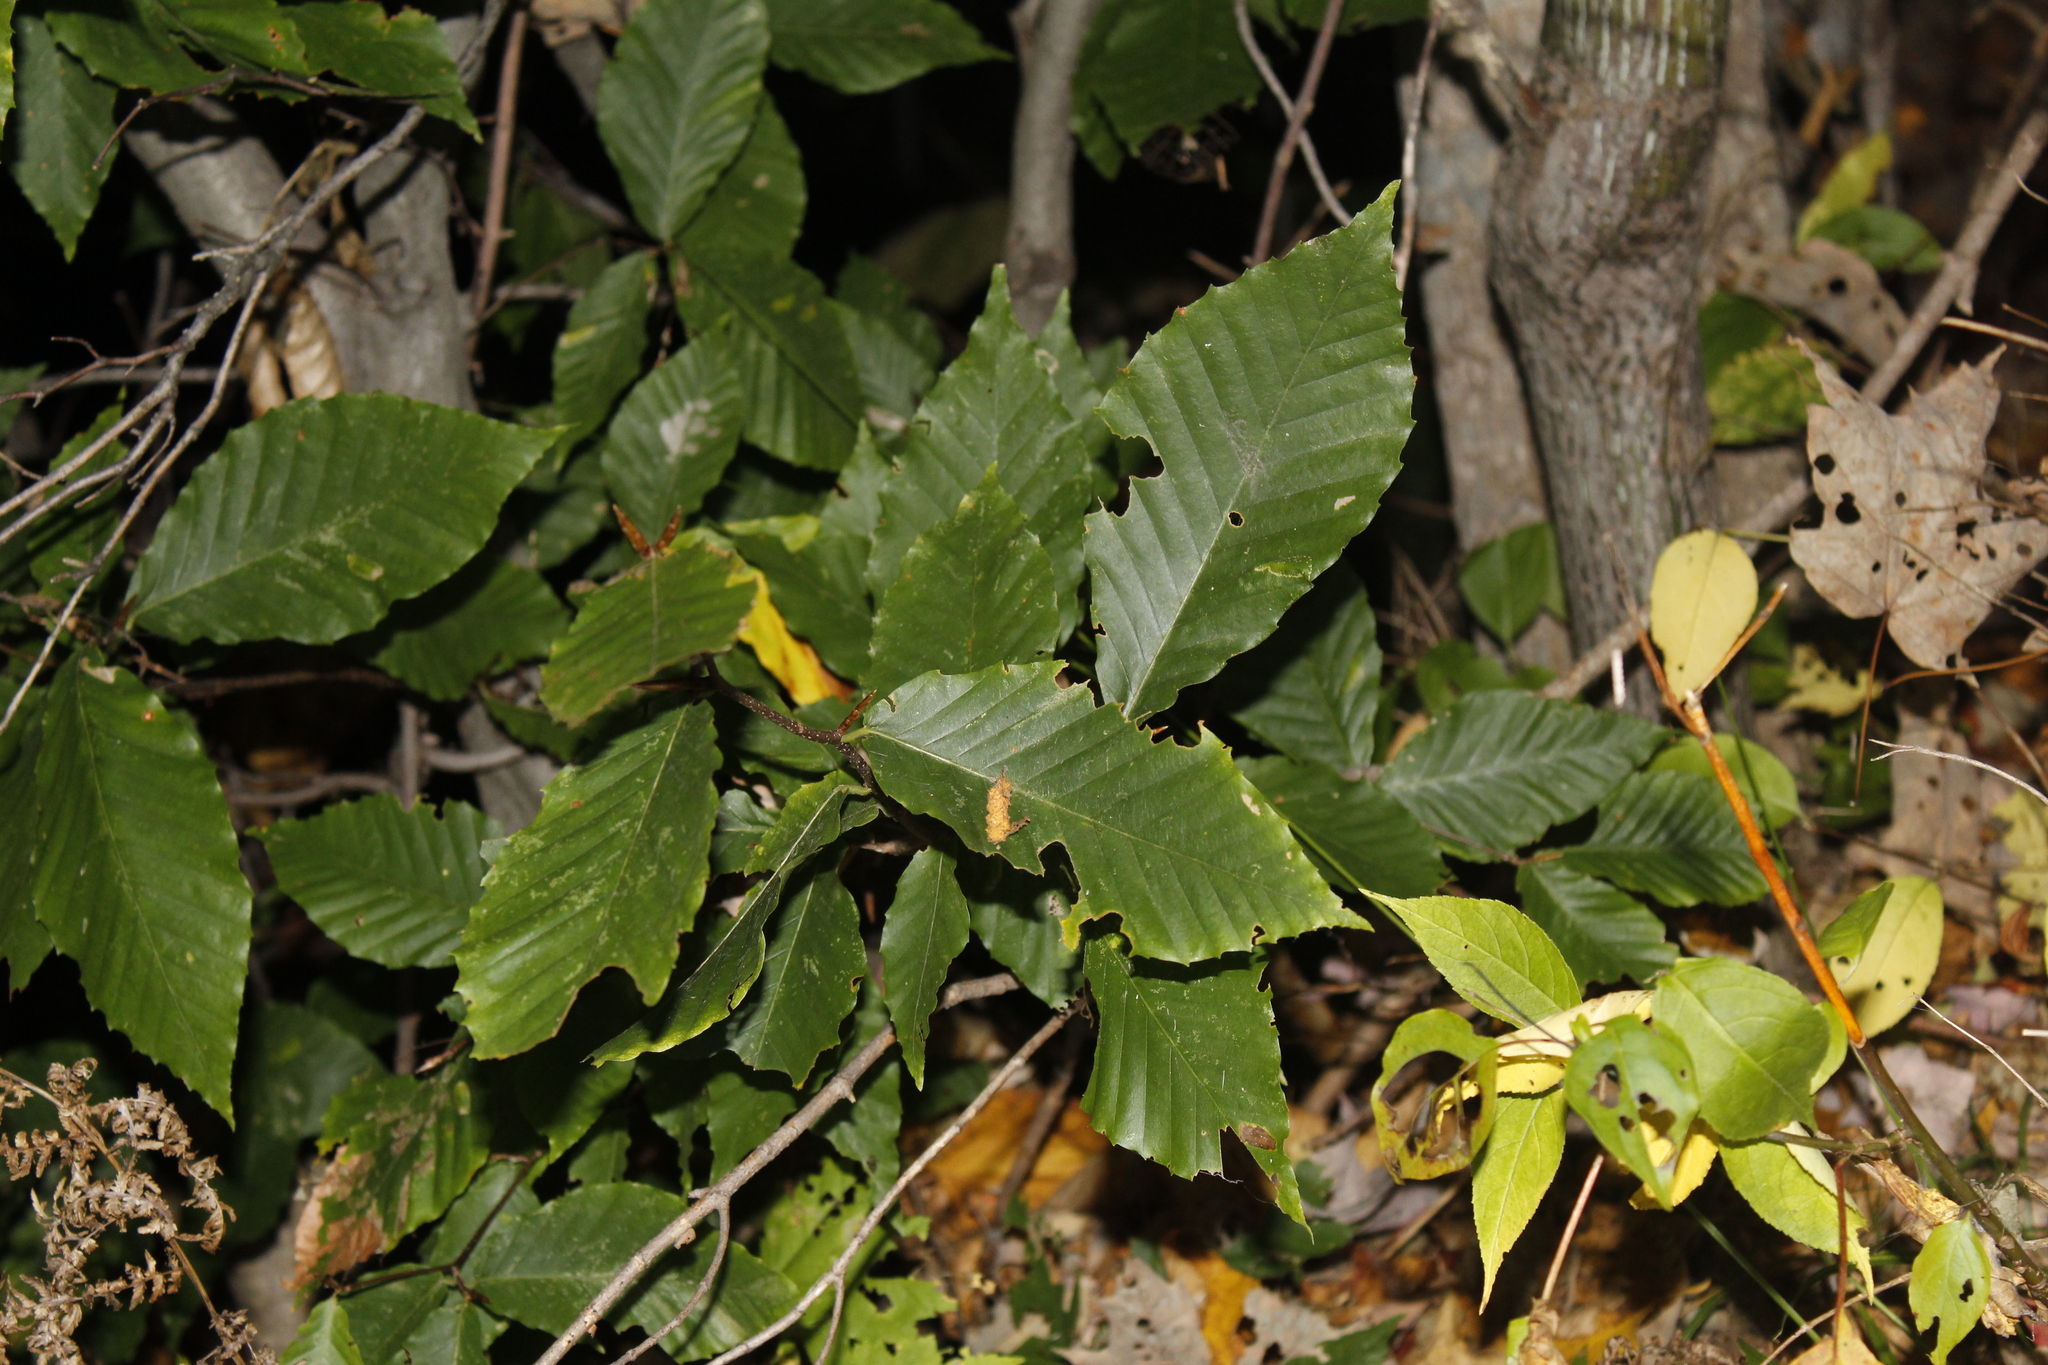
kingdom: Plantae
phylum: Tracheophyta
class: Magnoliopsida
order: Fagales
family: Fagaceae
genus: Fagus
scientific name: Fagus grandifolia
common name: American beech
